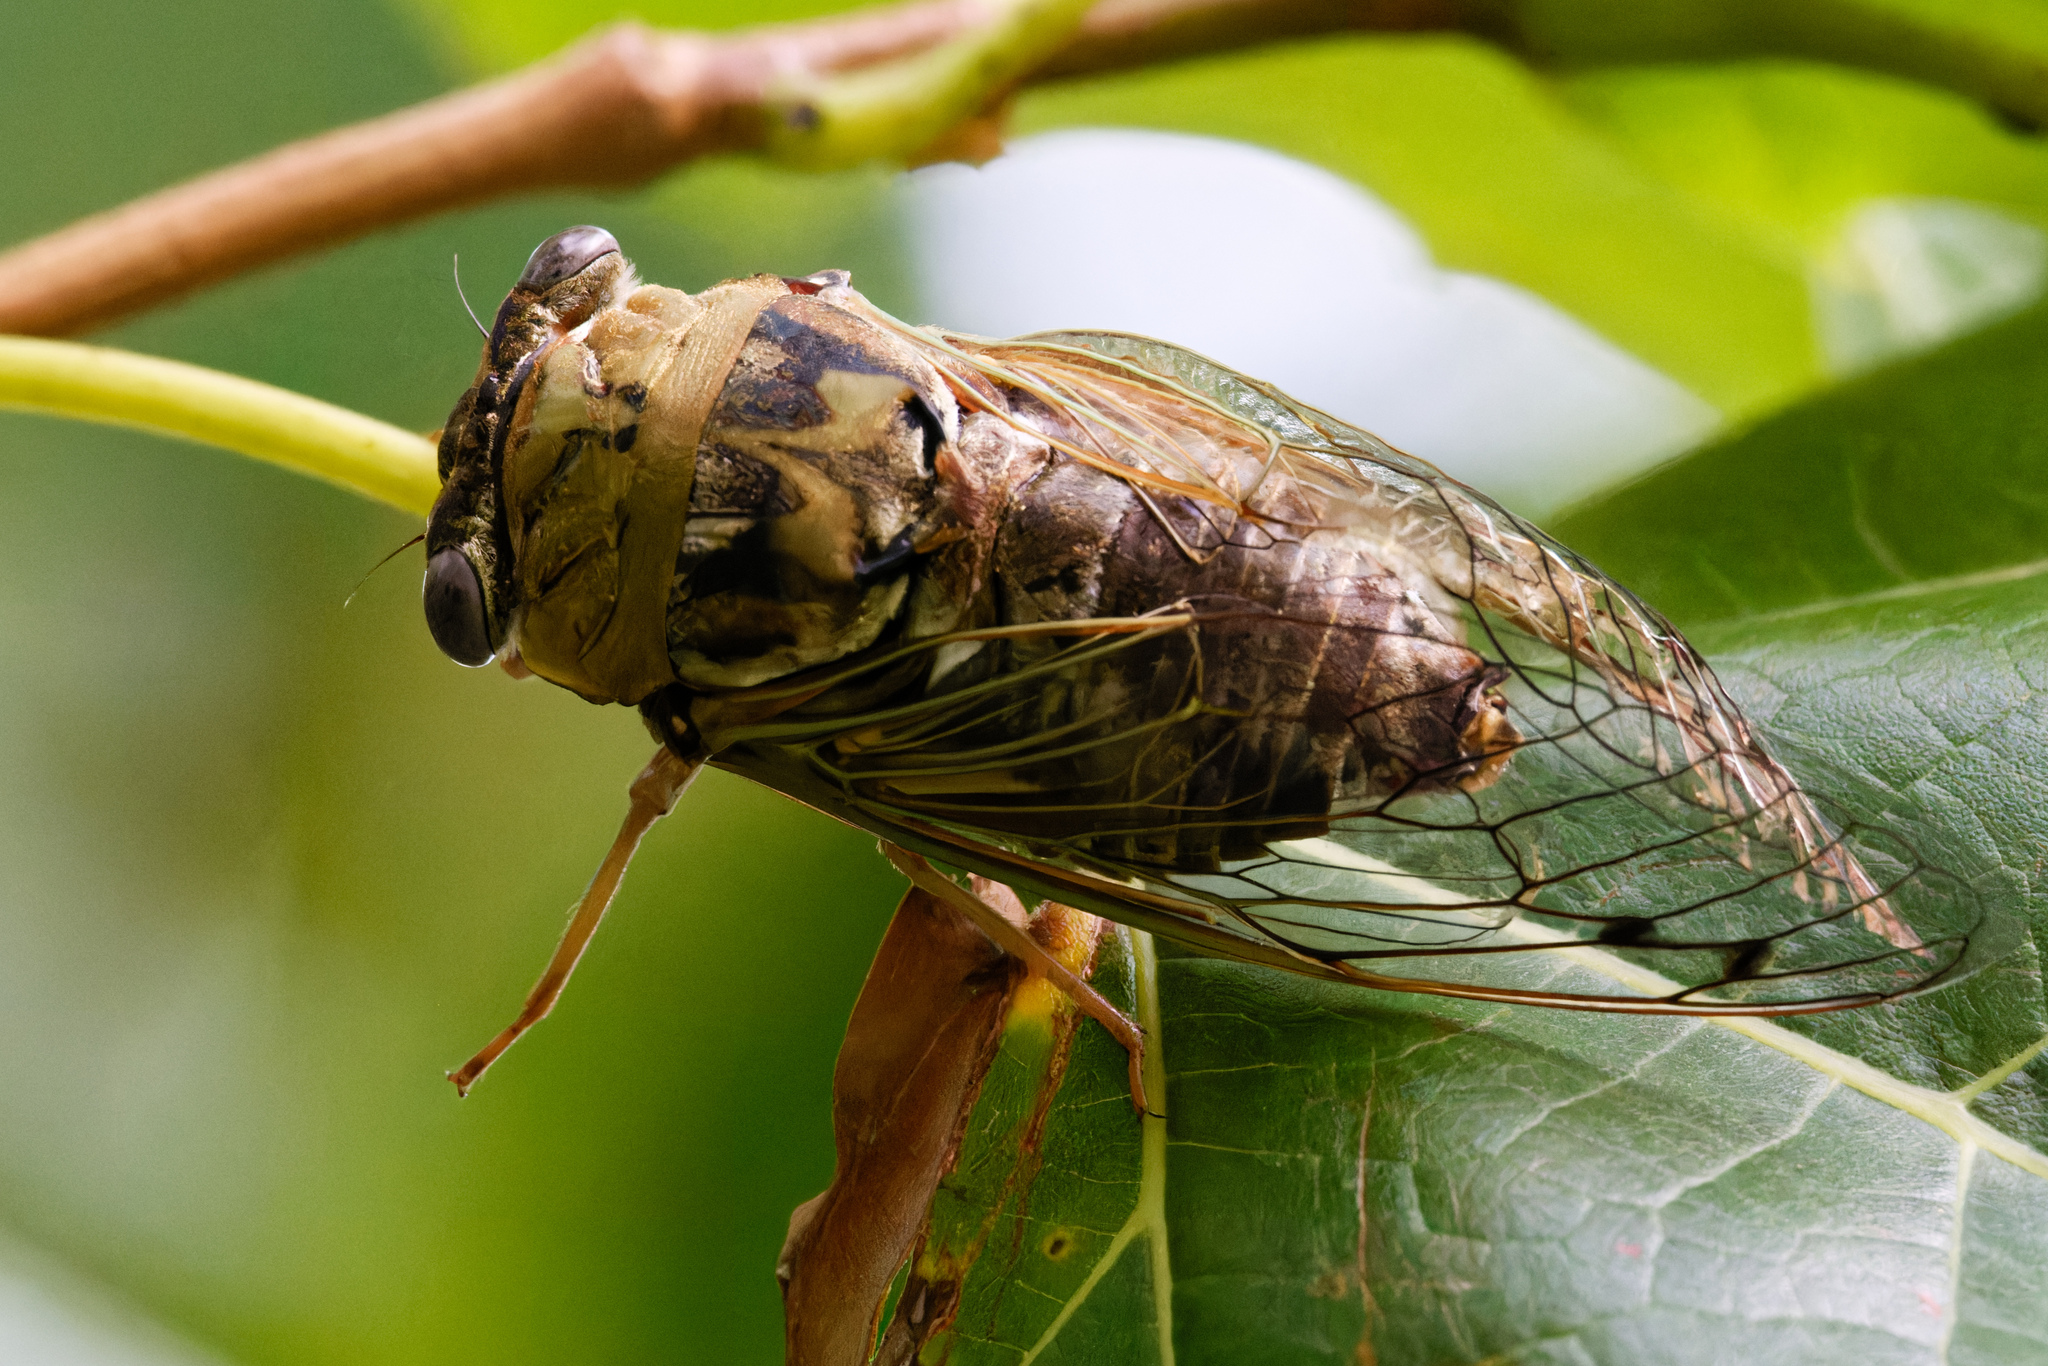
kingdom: Animalia
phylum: Arthropoda
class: Insecta
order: Hemiptera
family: Cicadidae
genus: Megatibicen
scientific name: Megatibicen resh
